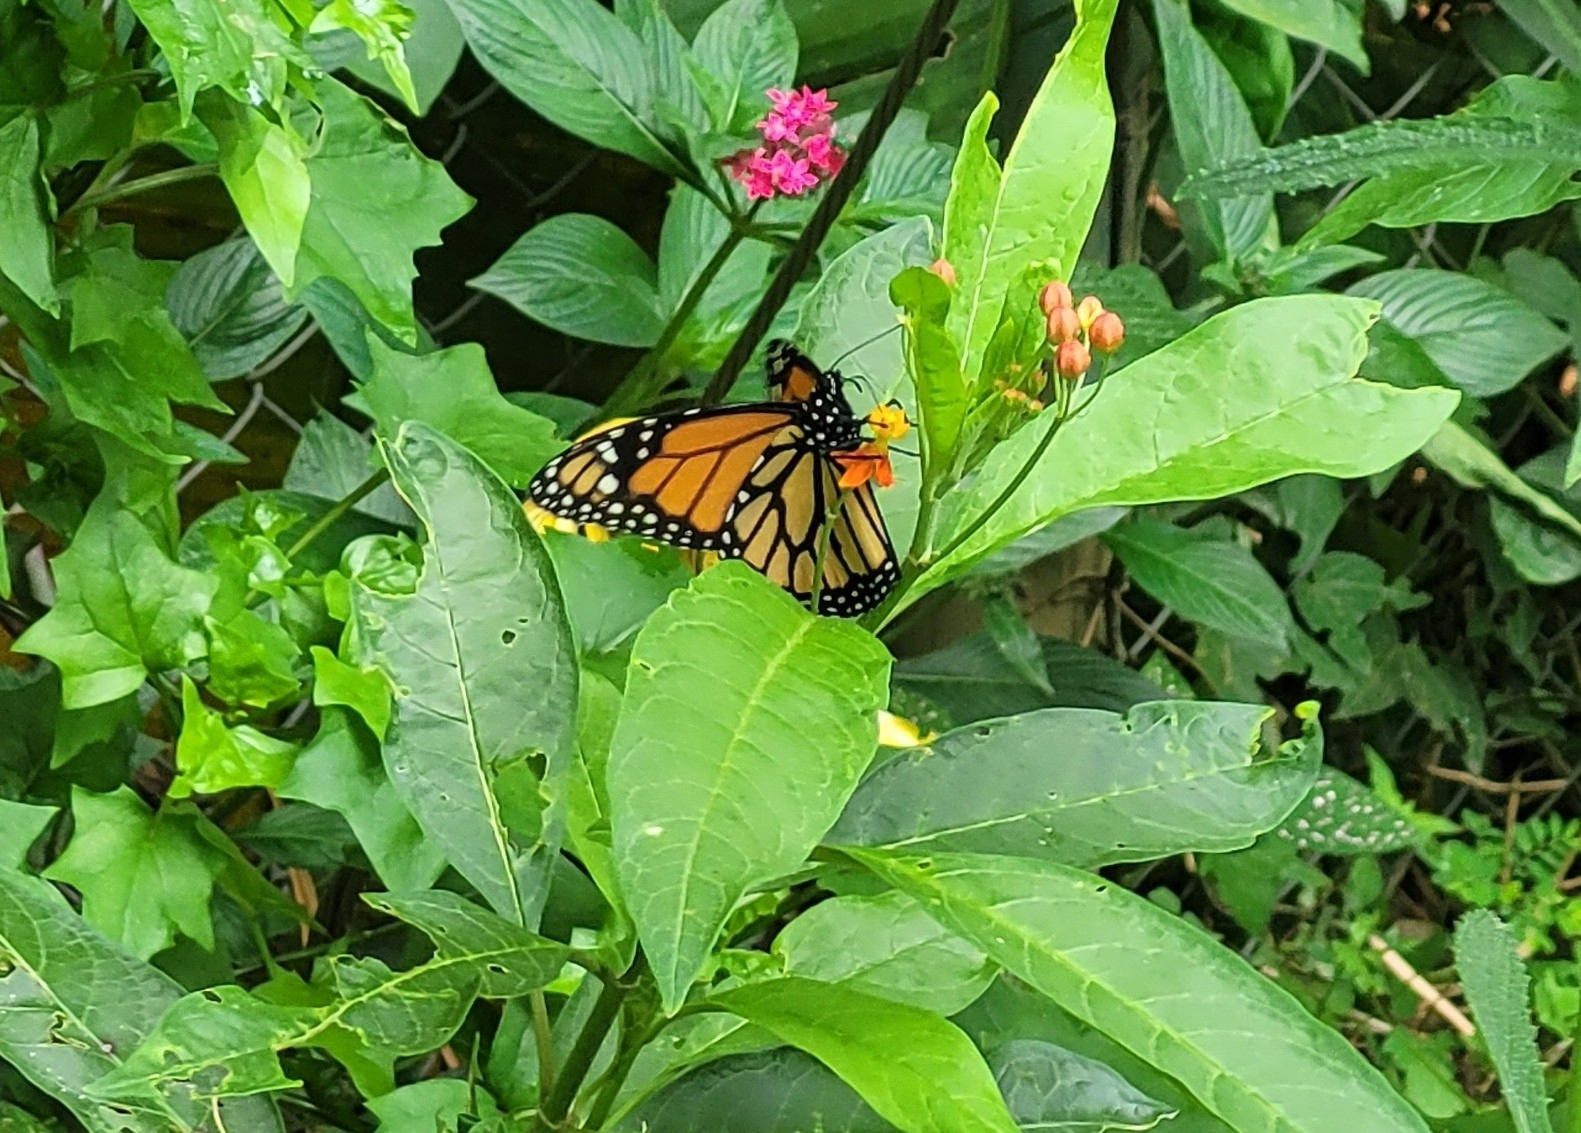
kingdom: Animalia
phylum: Arthropoda
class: Insecta
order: Lepidoptera
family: Nymphalidae
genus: Danaus
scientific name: Danaus plexippus
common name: Monarch
